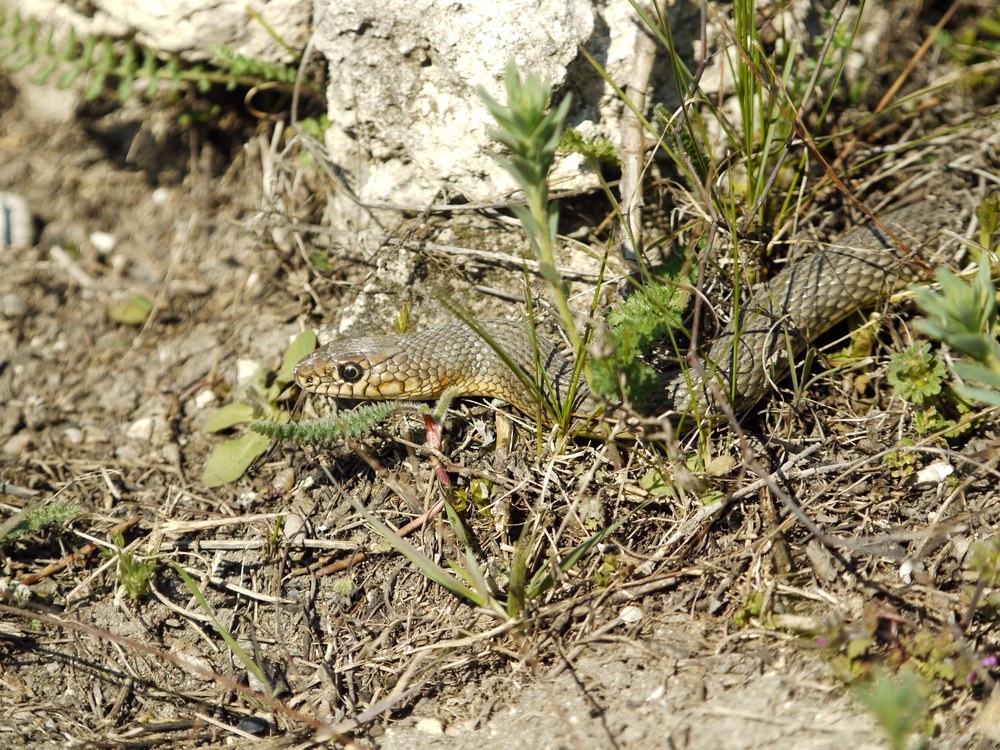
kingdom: Animalia
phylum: Chordata
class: Squamata
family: Colubridae
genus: Dolichophis
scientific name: Dolichophis caspius
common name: Large whip snake
